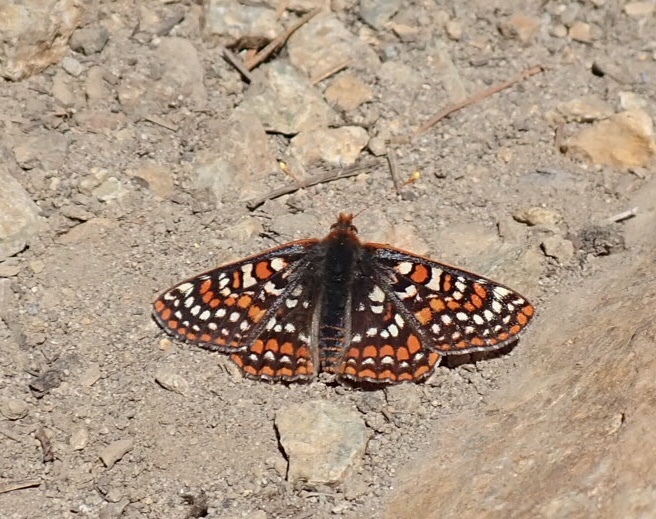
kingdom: Animalia
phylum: Arthropoda
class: Insecta
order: Lepidoptera
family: Nymphalidae
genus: Occidryas
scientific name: Occidryas editha
